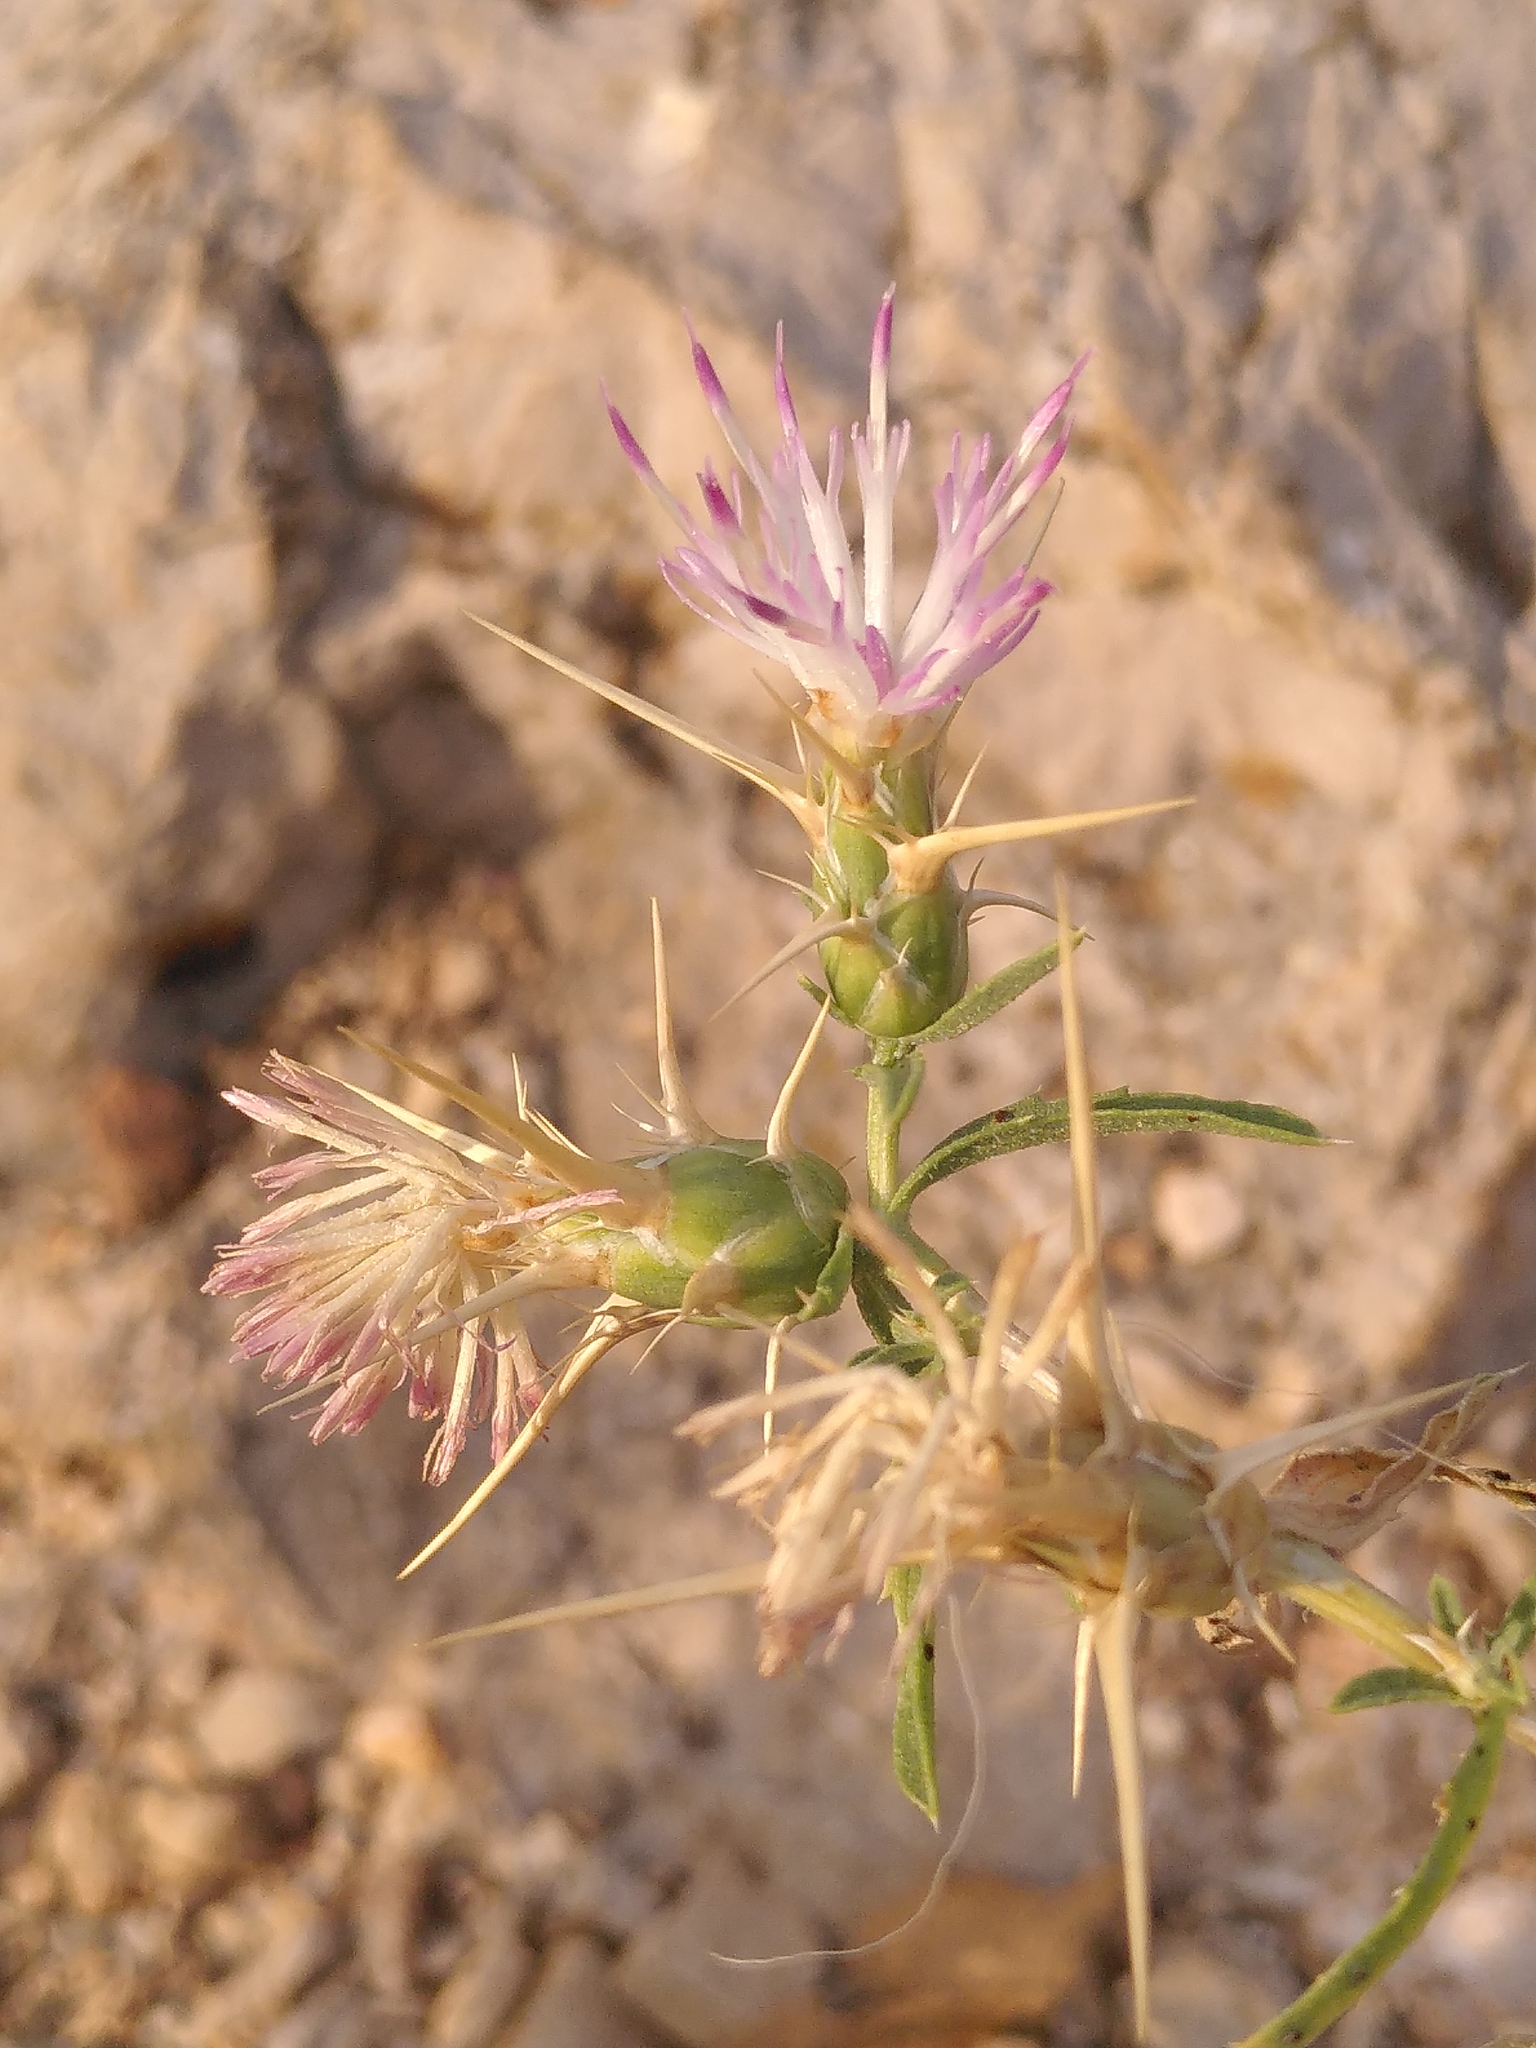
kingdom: Plantae
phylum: Tracheophyta
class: Magnoliopsida
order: Asterales
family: Asteraceae
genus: Centaurea
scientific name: Centaurea calcitrapa
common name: Red star-thistle
